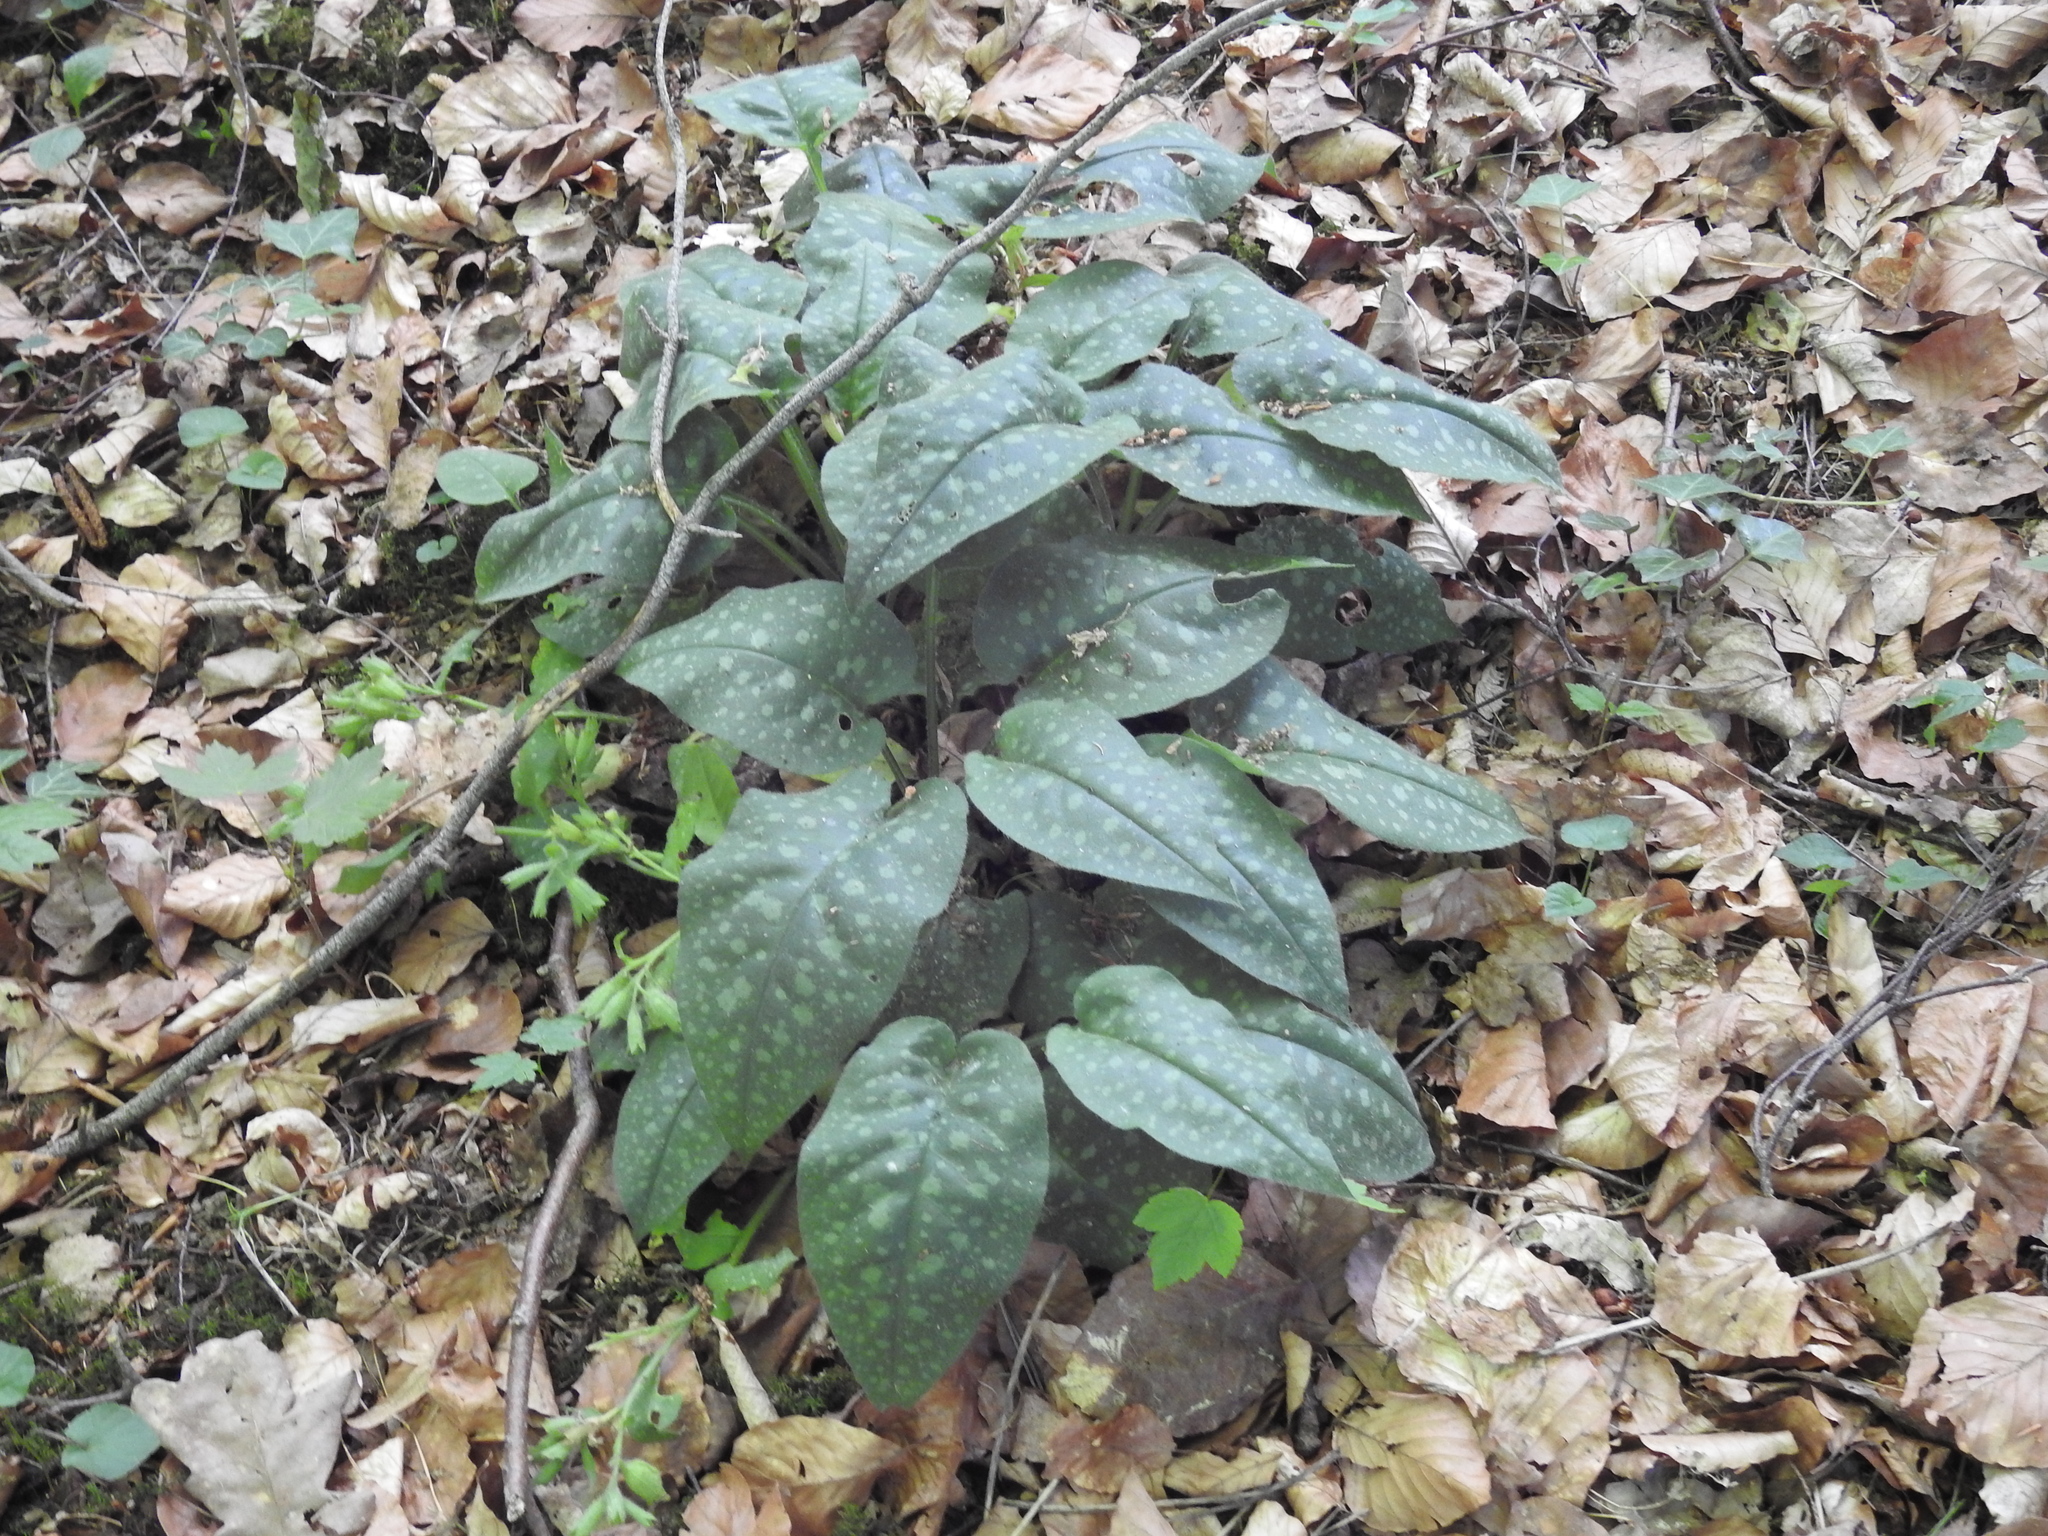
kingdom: Plantae
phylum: Tracheophyta
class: Magnoliopsida
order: Boraginales
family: Boraginaceae
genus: Pulmonaria
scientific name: Pulmonaria officinalis
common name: Lungwort
